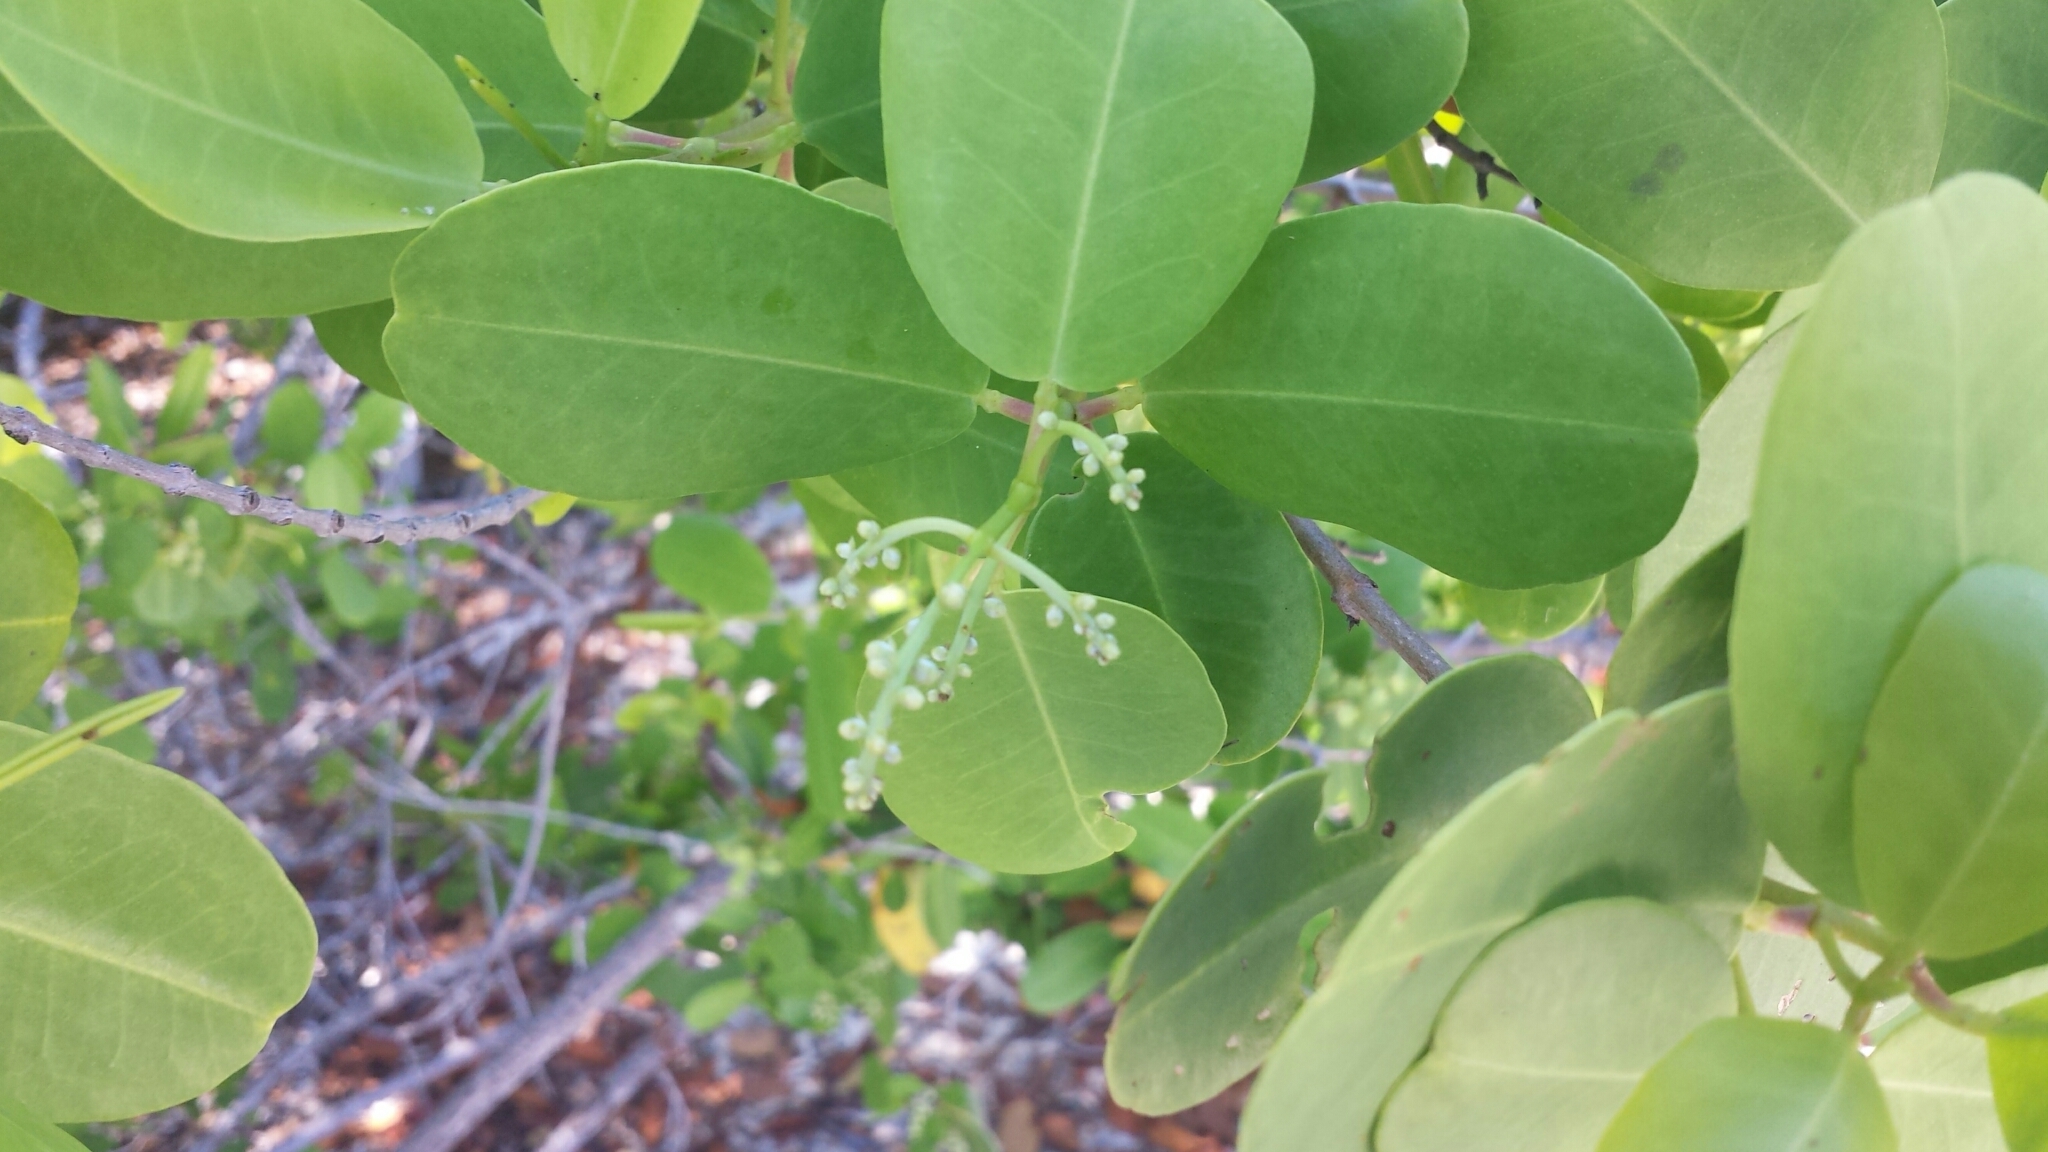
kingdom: Plantae
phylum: Tracheophyta
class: Magnoliopsida
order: Myrtales
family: Combretaceae
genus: Laguncularia
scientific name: Laguncularia racemosa
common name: White mangrove
